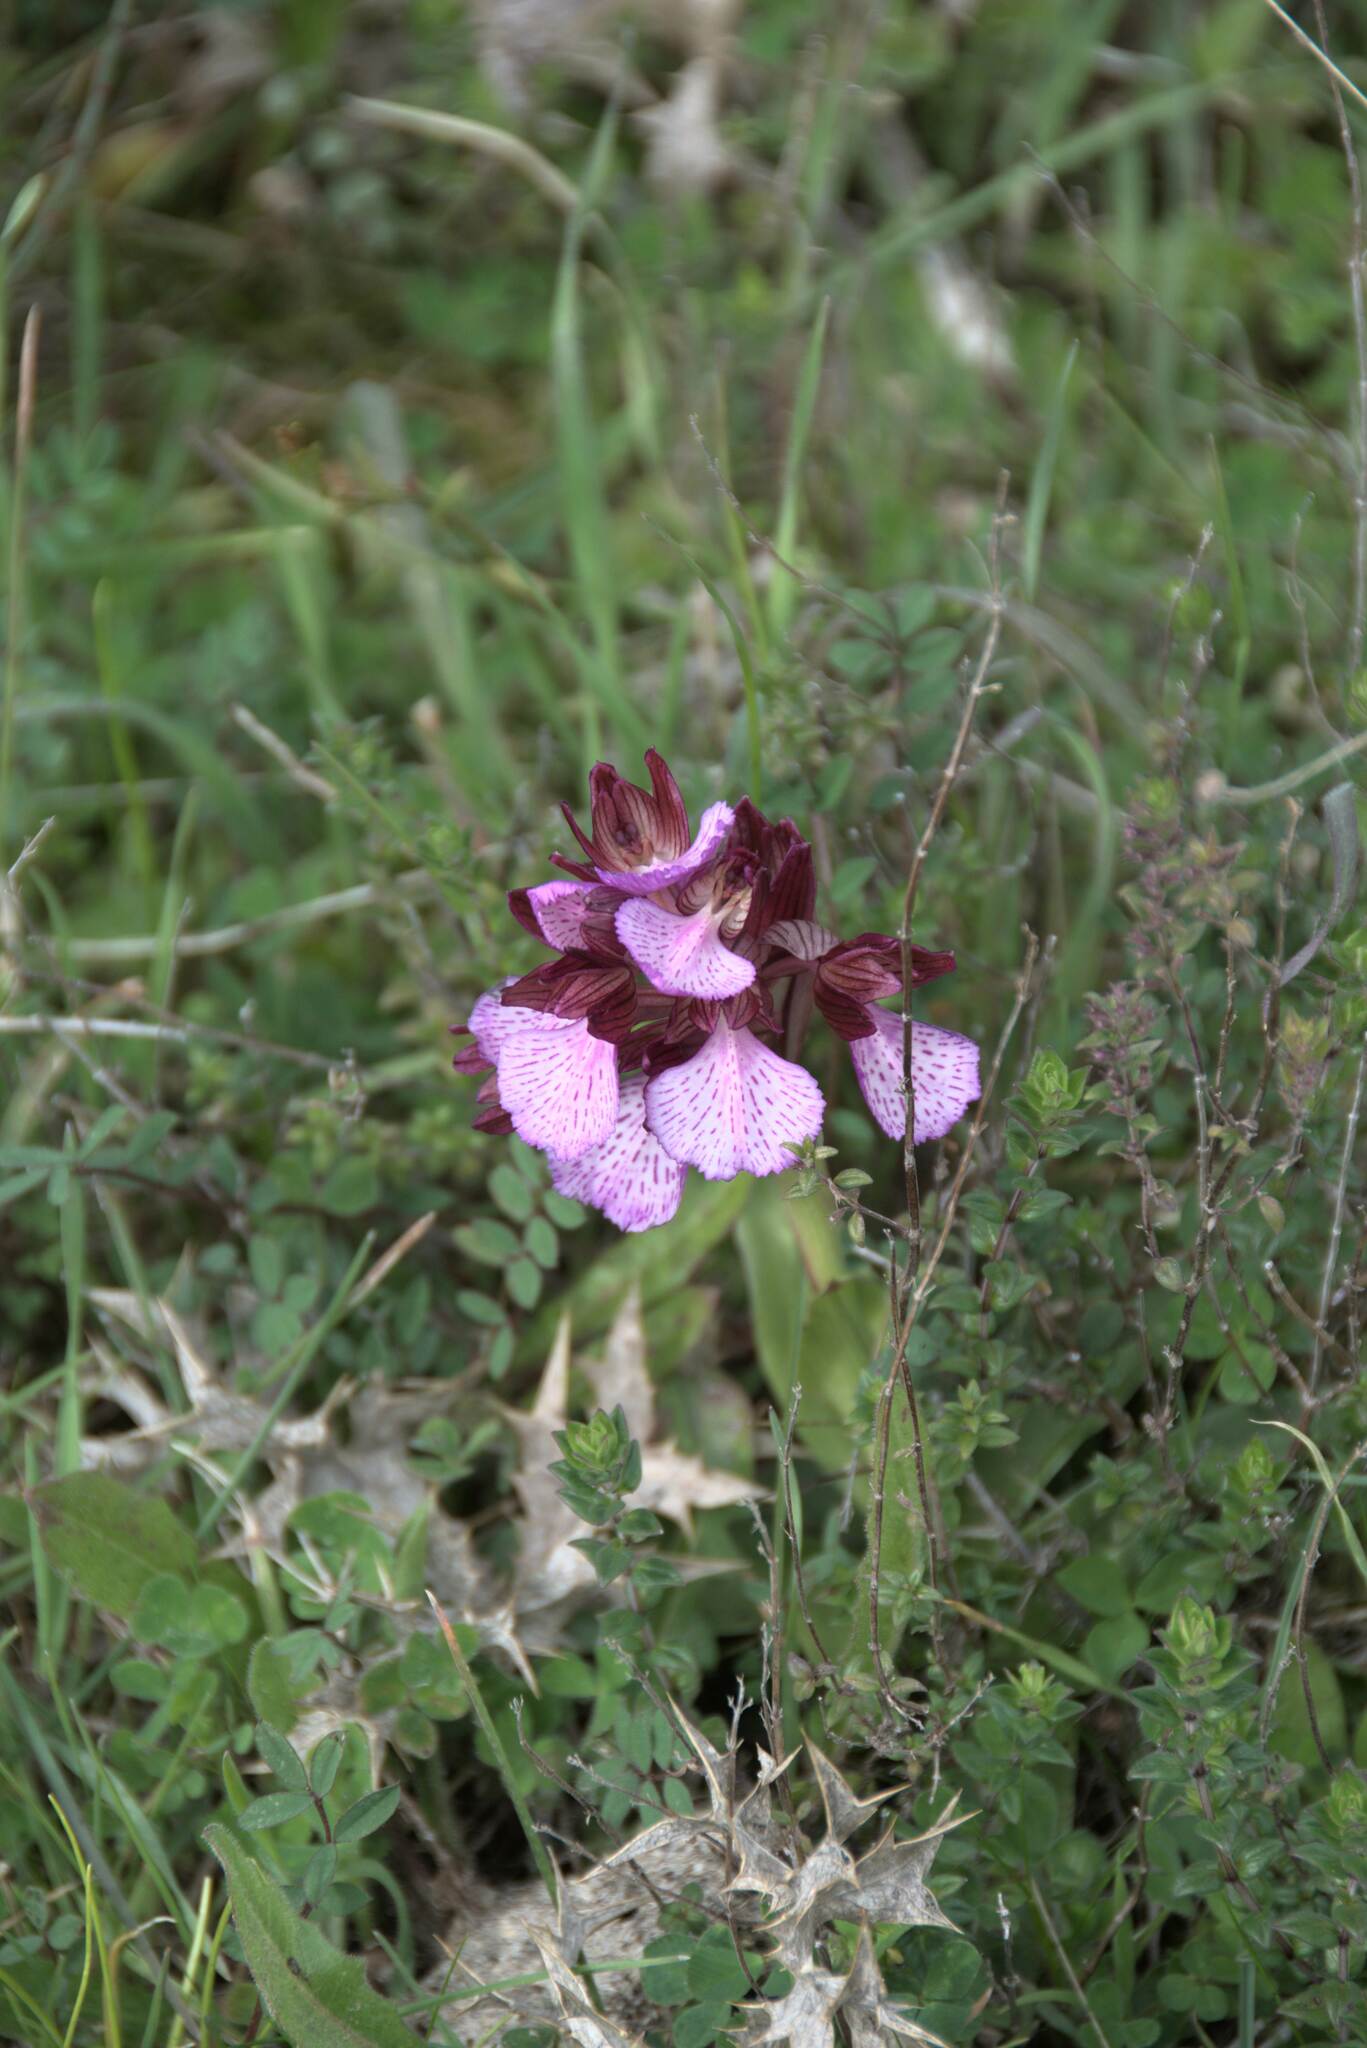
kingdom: Plantae
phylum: Tracheophyta
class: Liliopsida
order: Asparagales
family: Orchidaceae
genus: Anacamptis
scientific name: Anacamptis papilionacea
